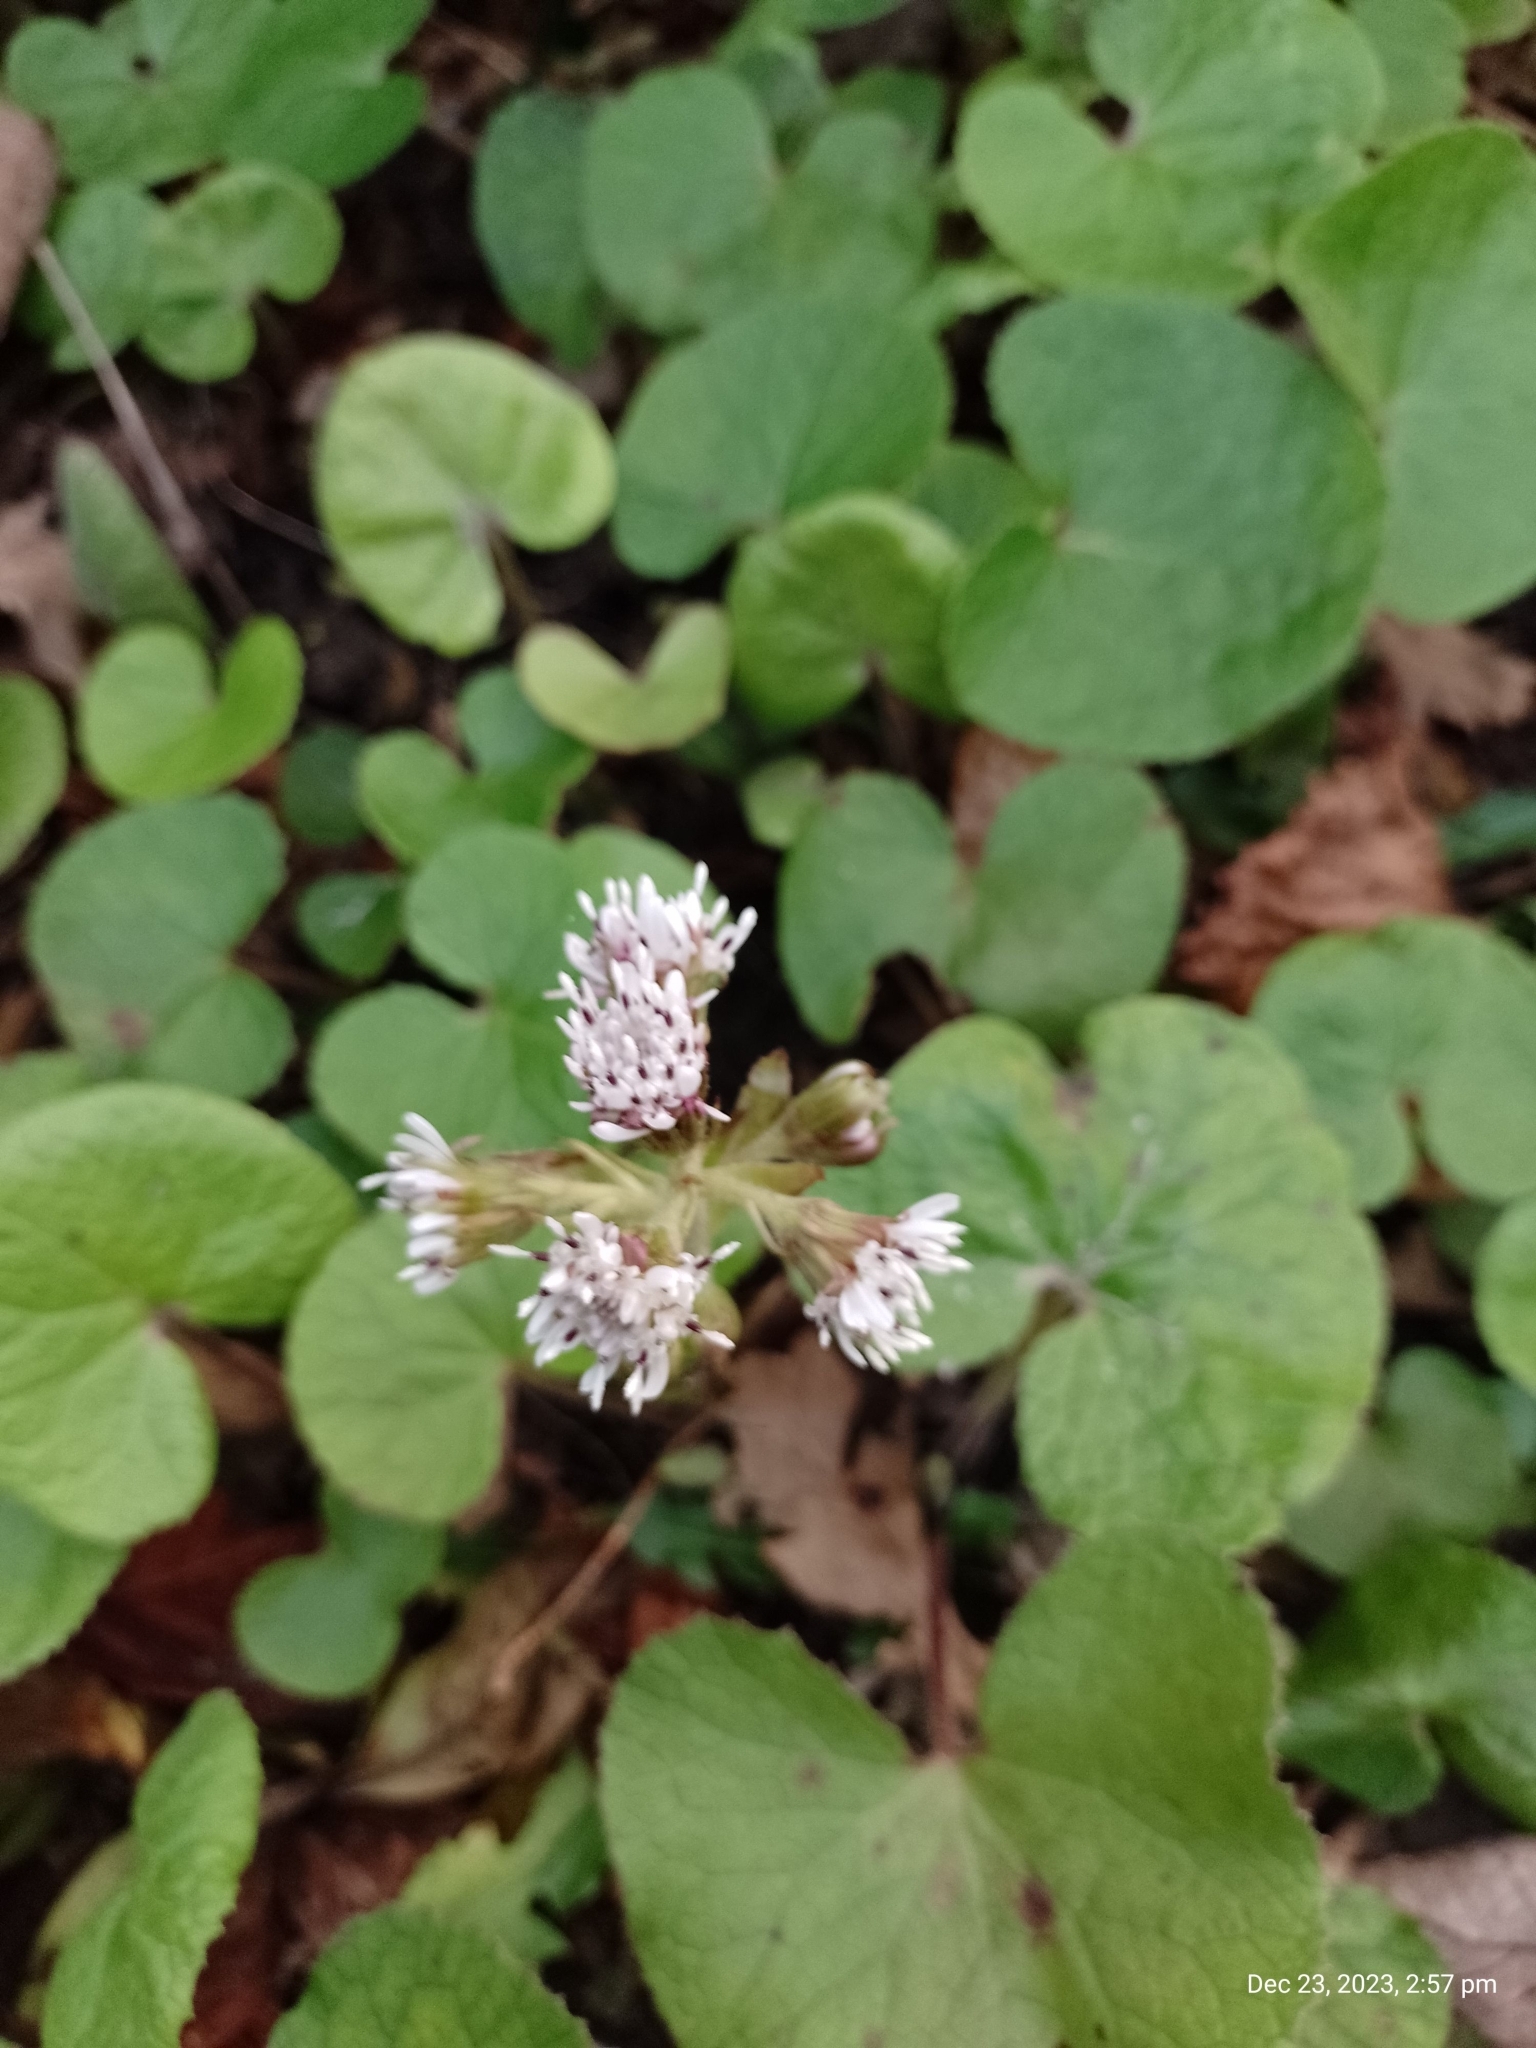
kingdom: Plantae
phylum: Tracheophyta
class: Magnoliopsida
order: Asterales
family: Asteraceae
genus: Petasites
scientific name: Petasites pyrenaicus
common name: Winter heliotrope
